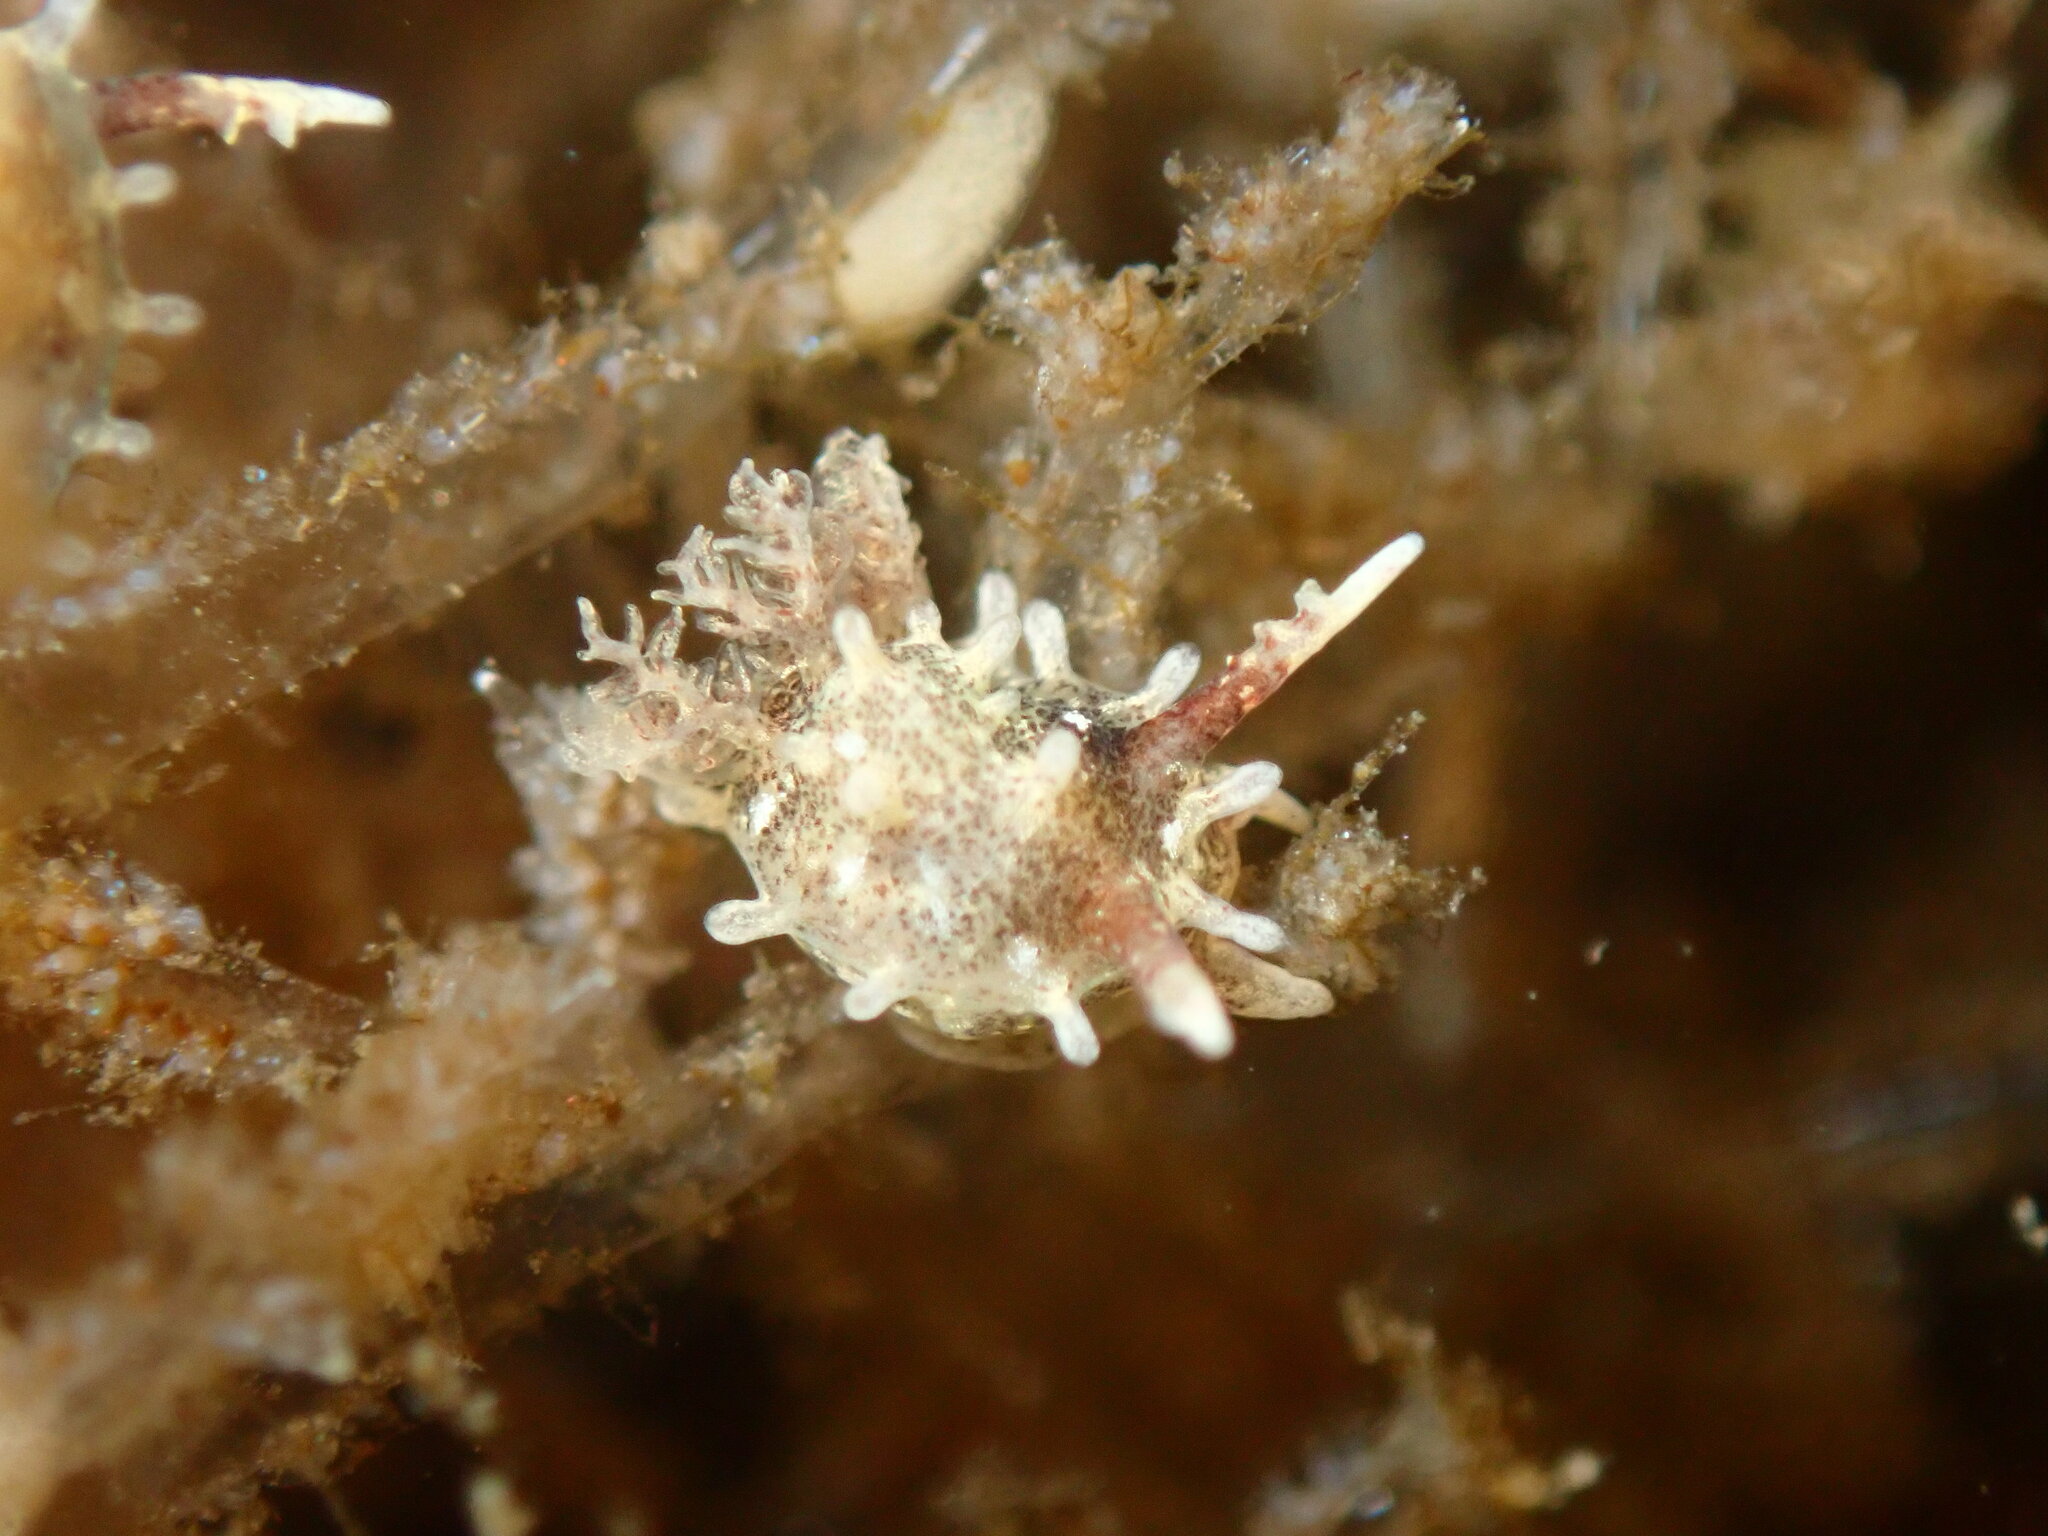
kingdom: Animalia
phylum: Mollusca
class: Gastropoda
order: Nudibranchia
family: Goniodorididae
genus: Okenia
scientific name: Okenia
